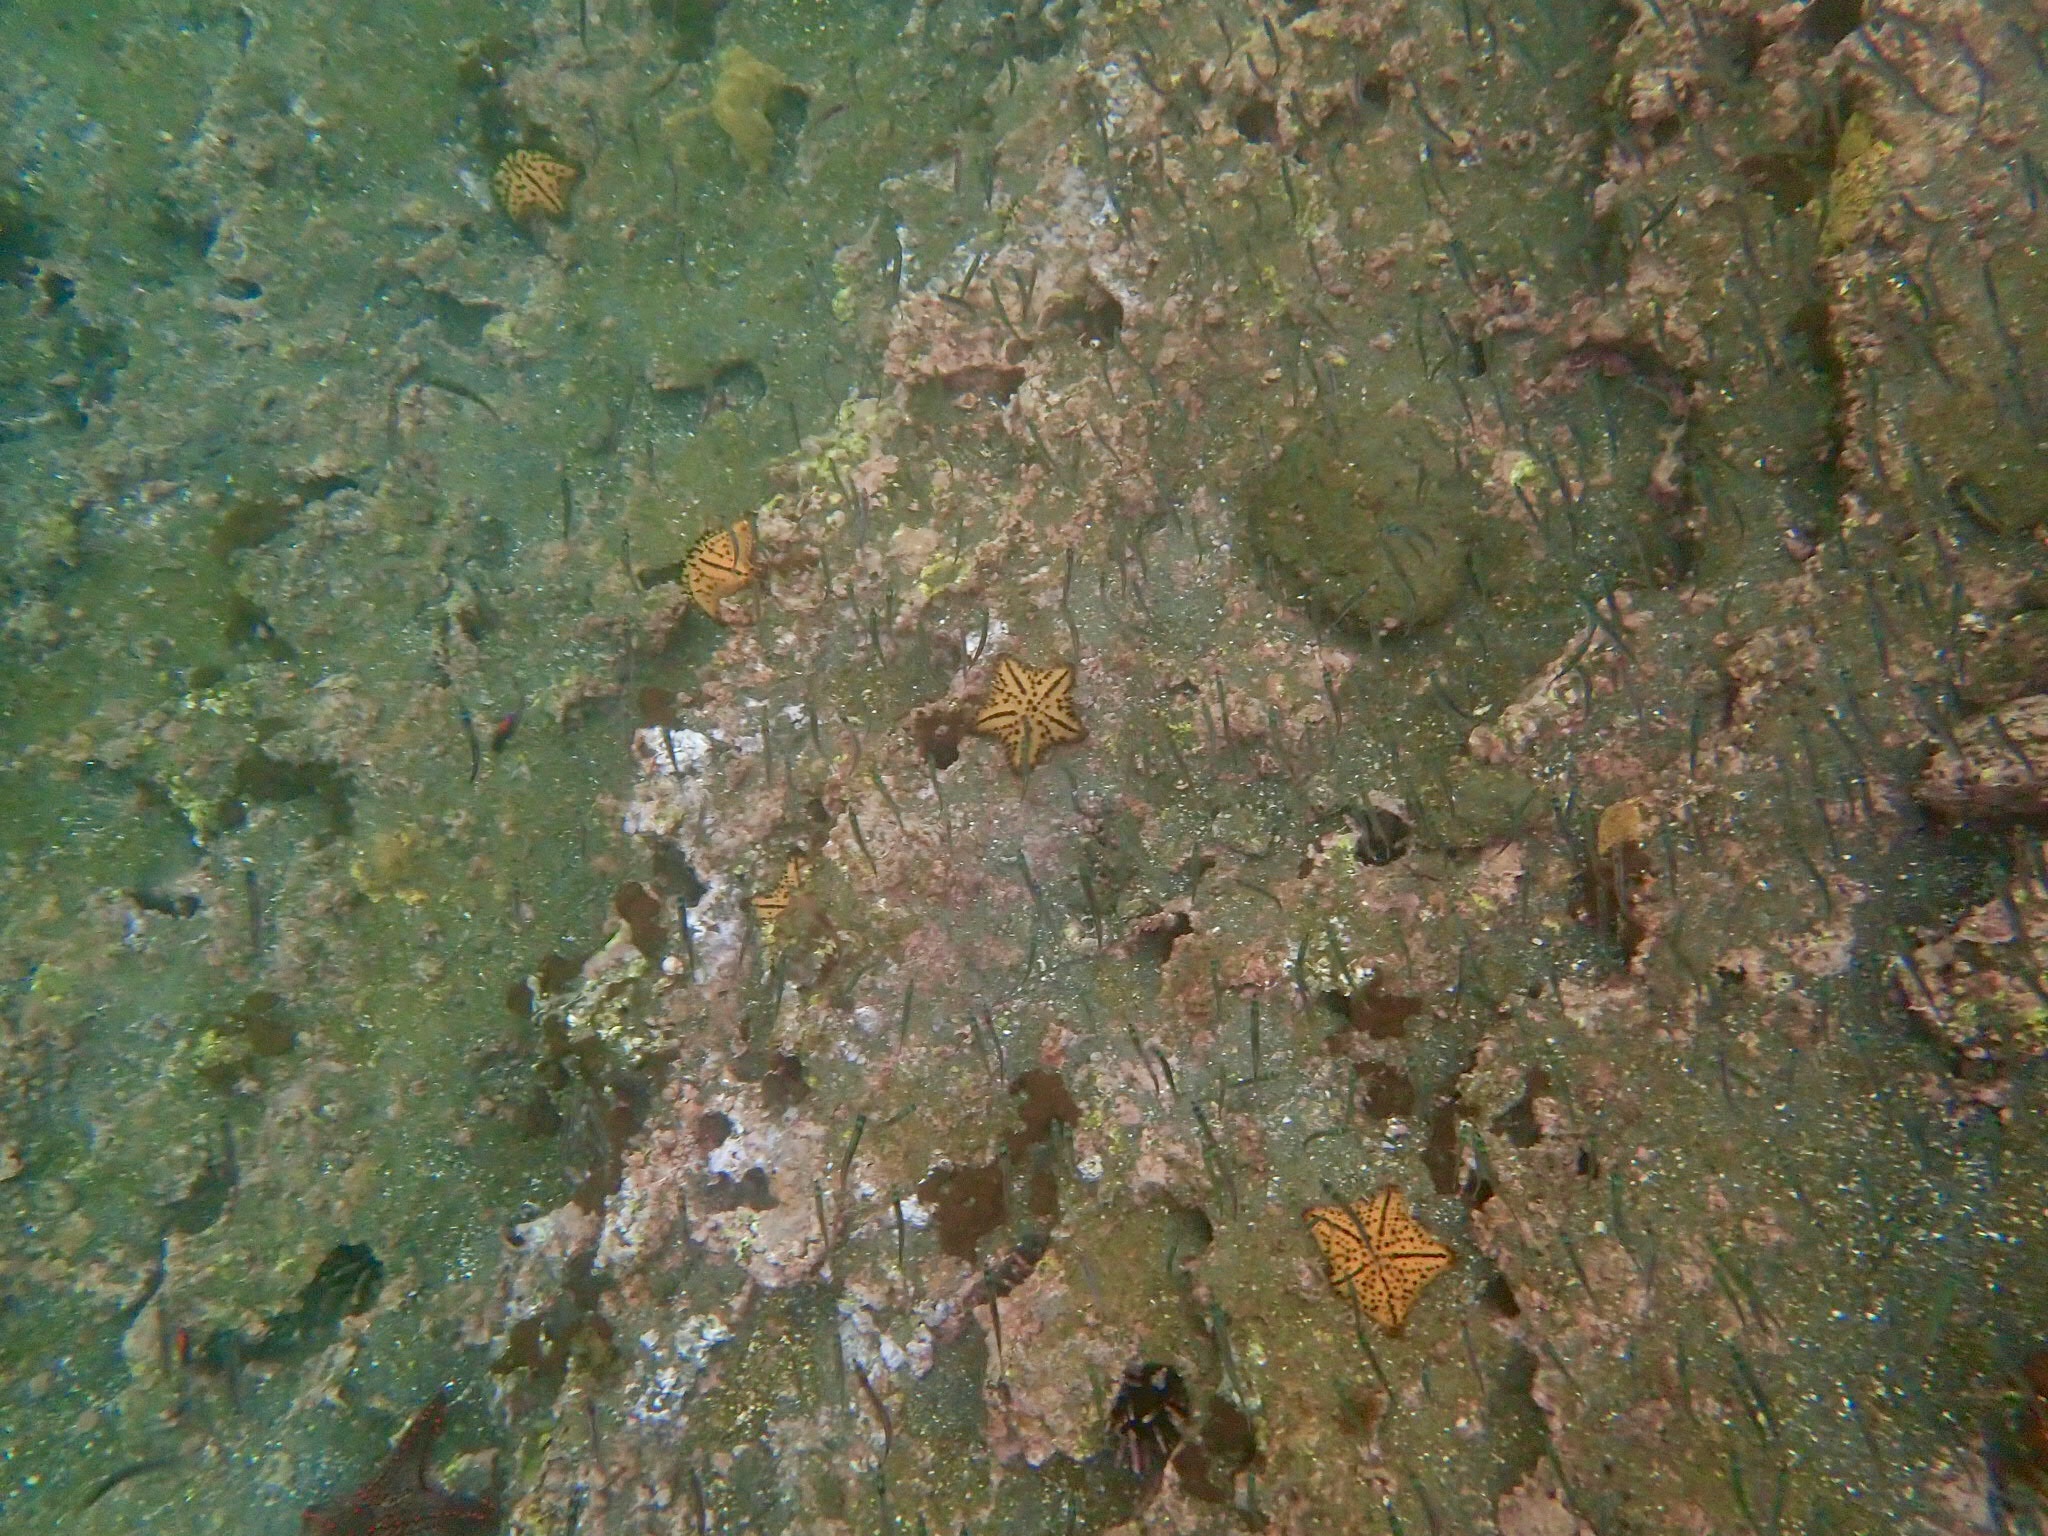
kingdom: Animalia
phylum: Echinodermata
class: Asteroidea
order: Valvatida
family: Oreasteridae
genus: Nidorellia
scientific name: Nidorellia armata
